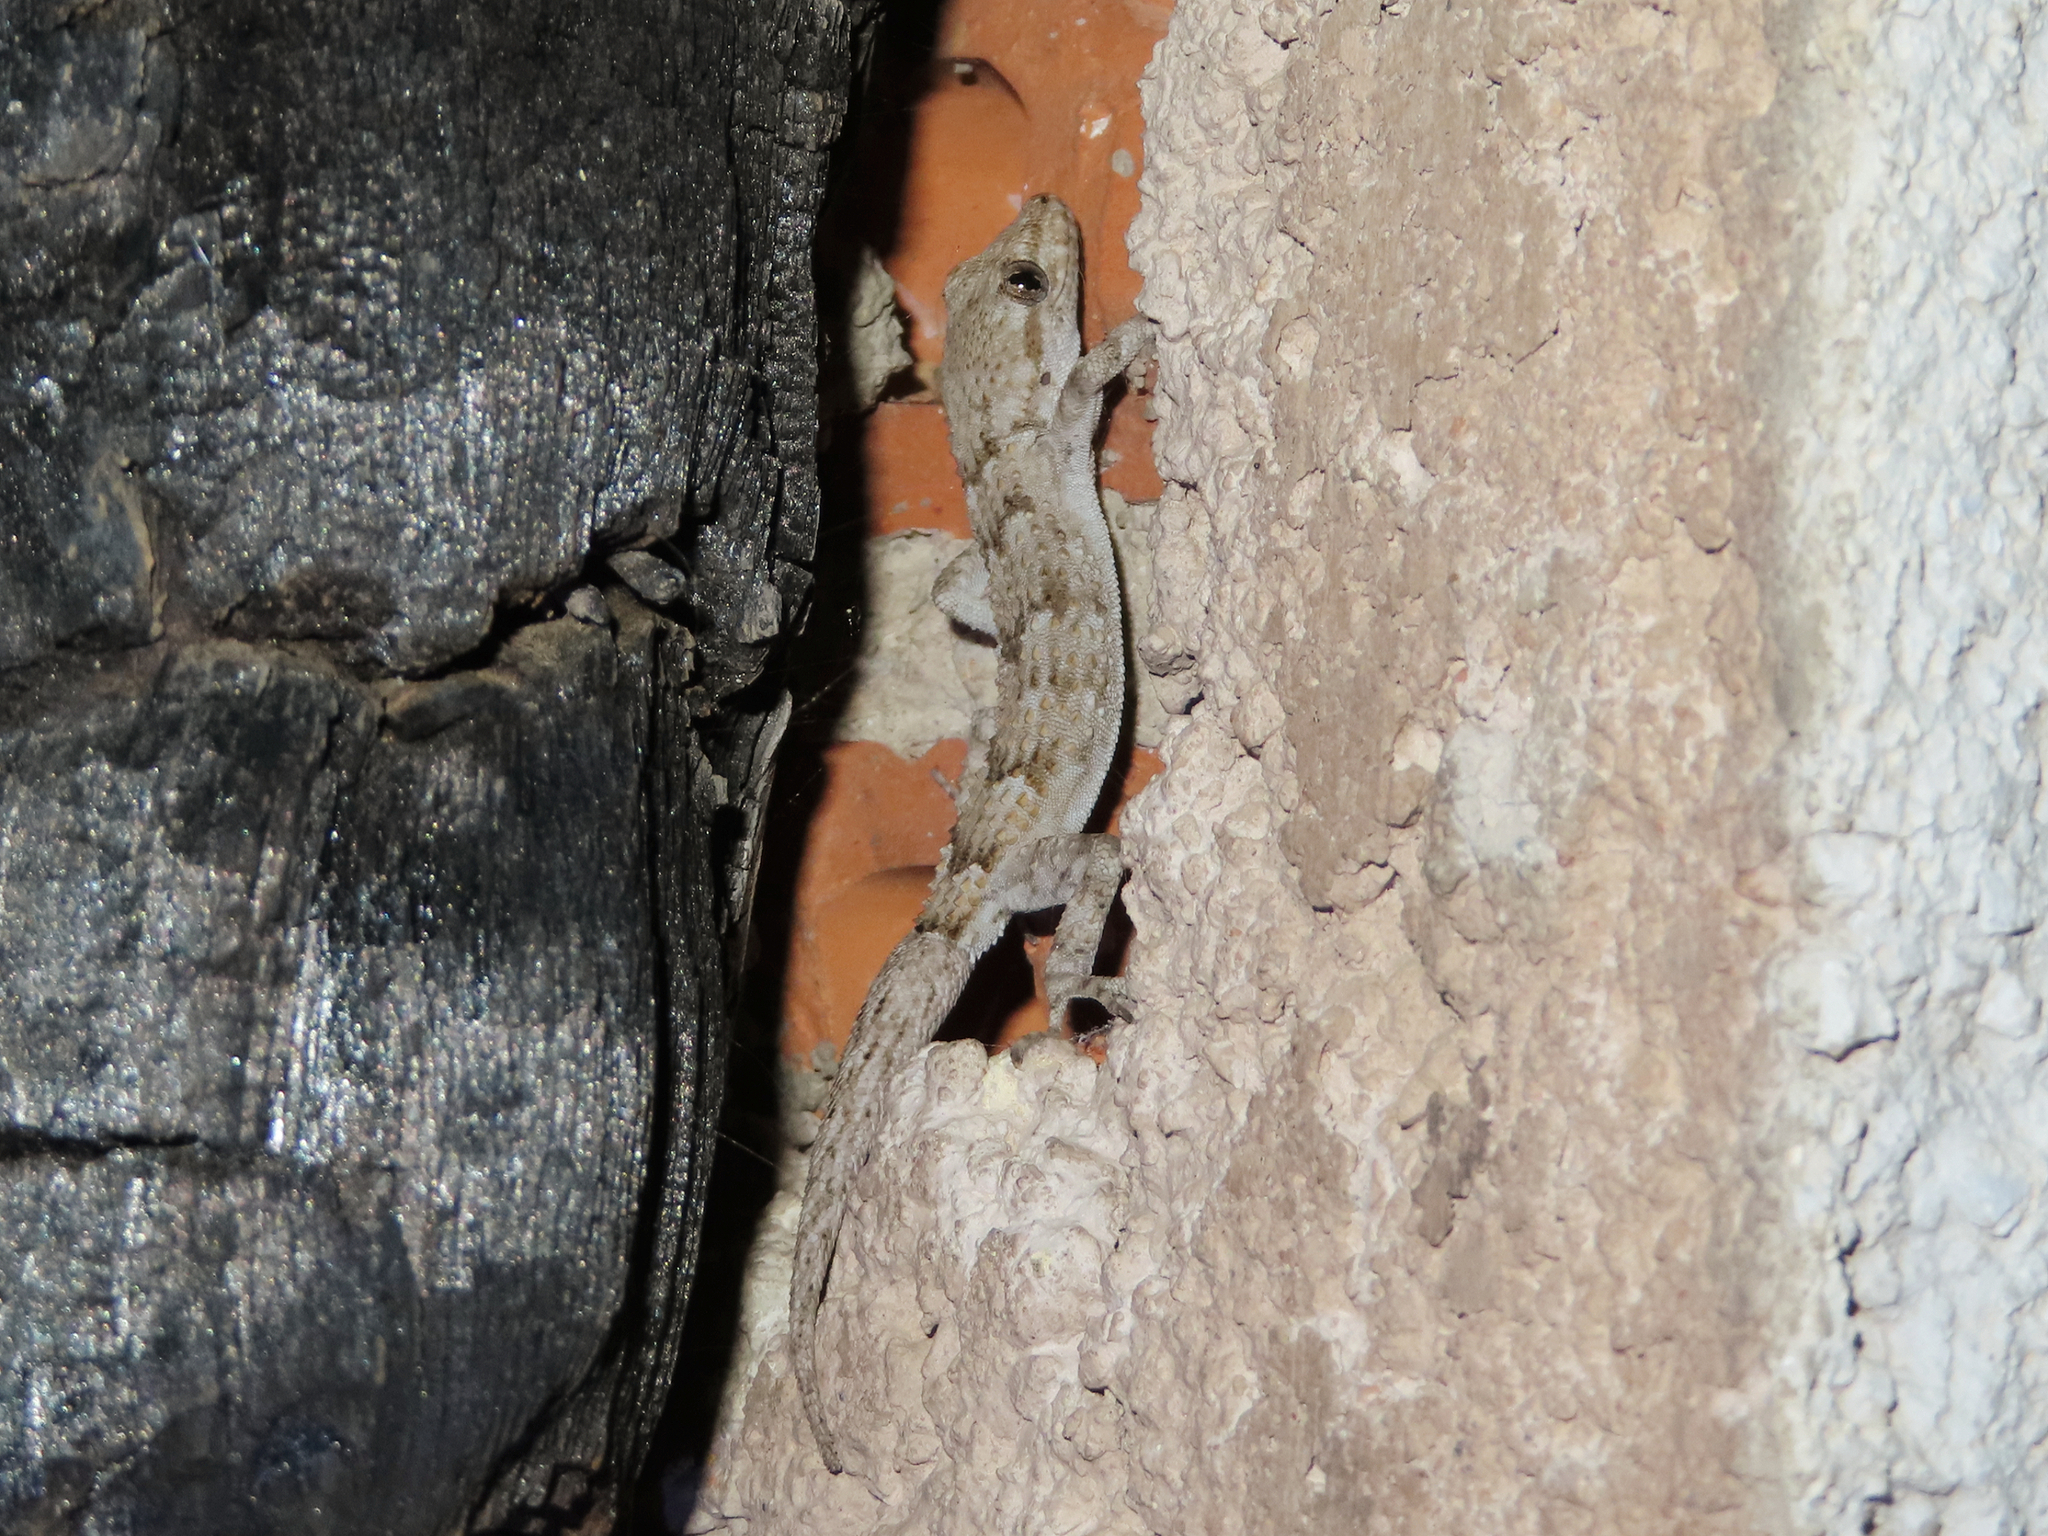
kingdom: Animalia
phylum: Chordata
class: Squamata
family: Gekkonidae
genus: Mediodactylus
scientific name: Mediodactylus kotschyi
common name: Kotschy's gecko
